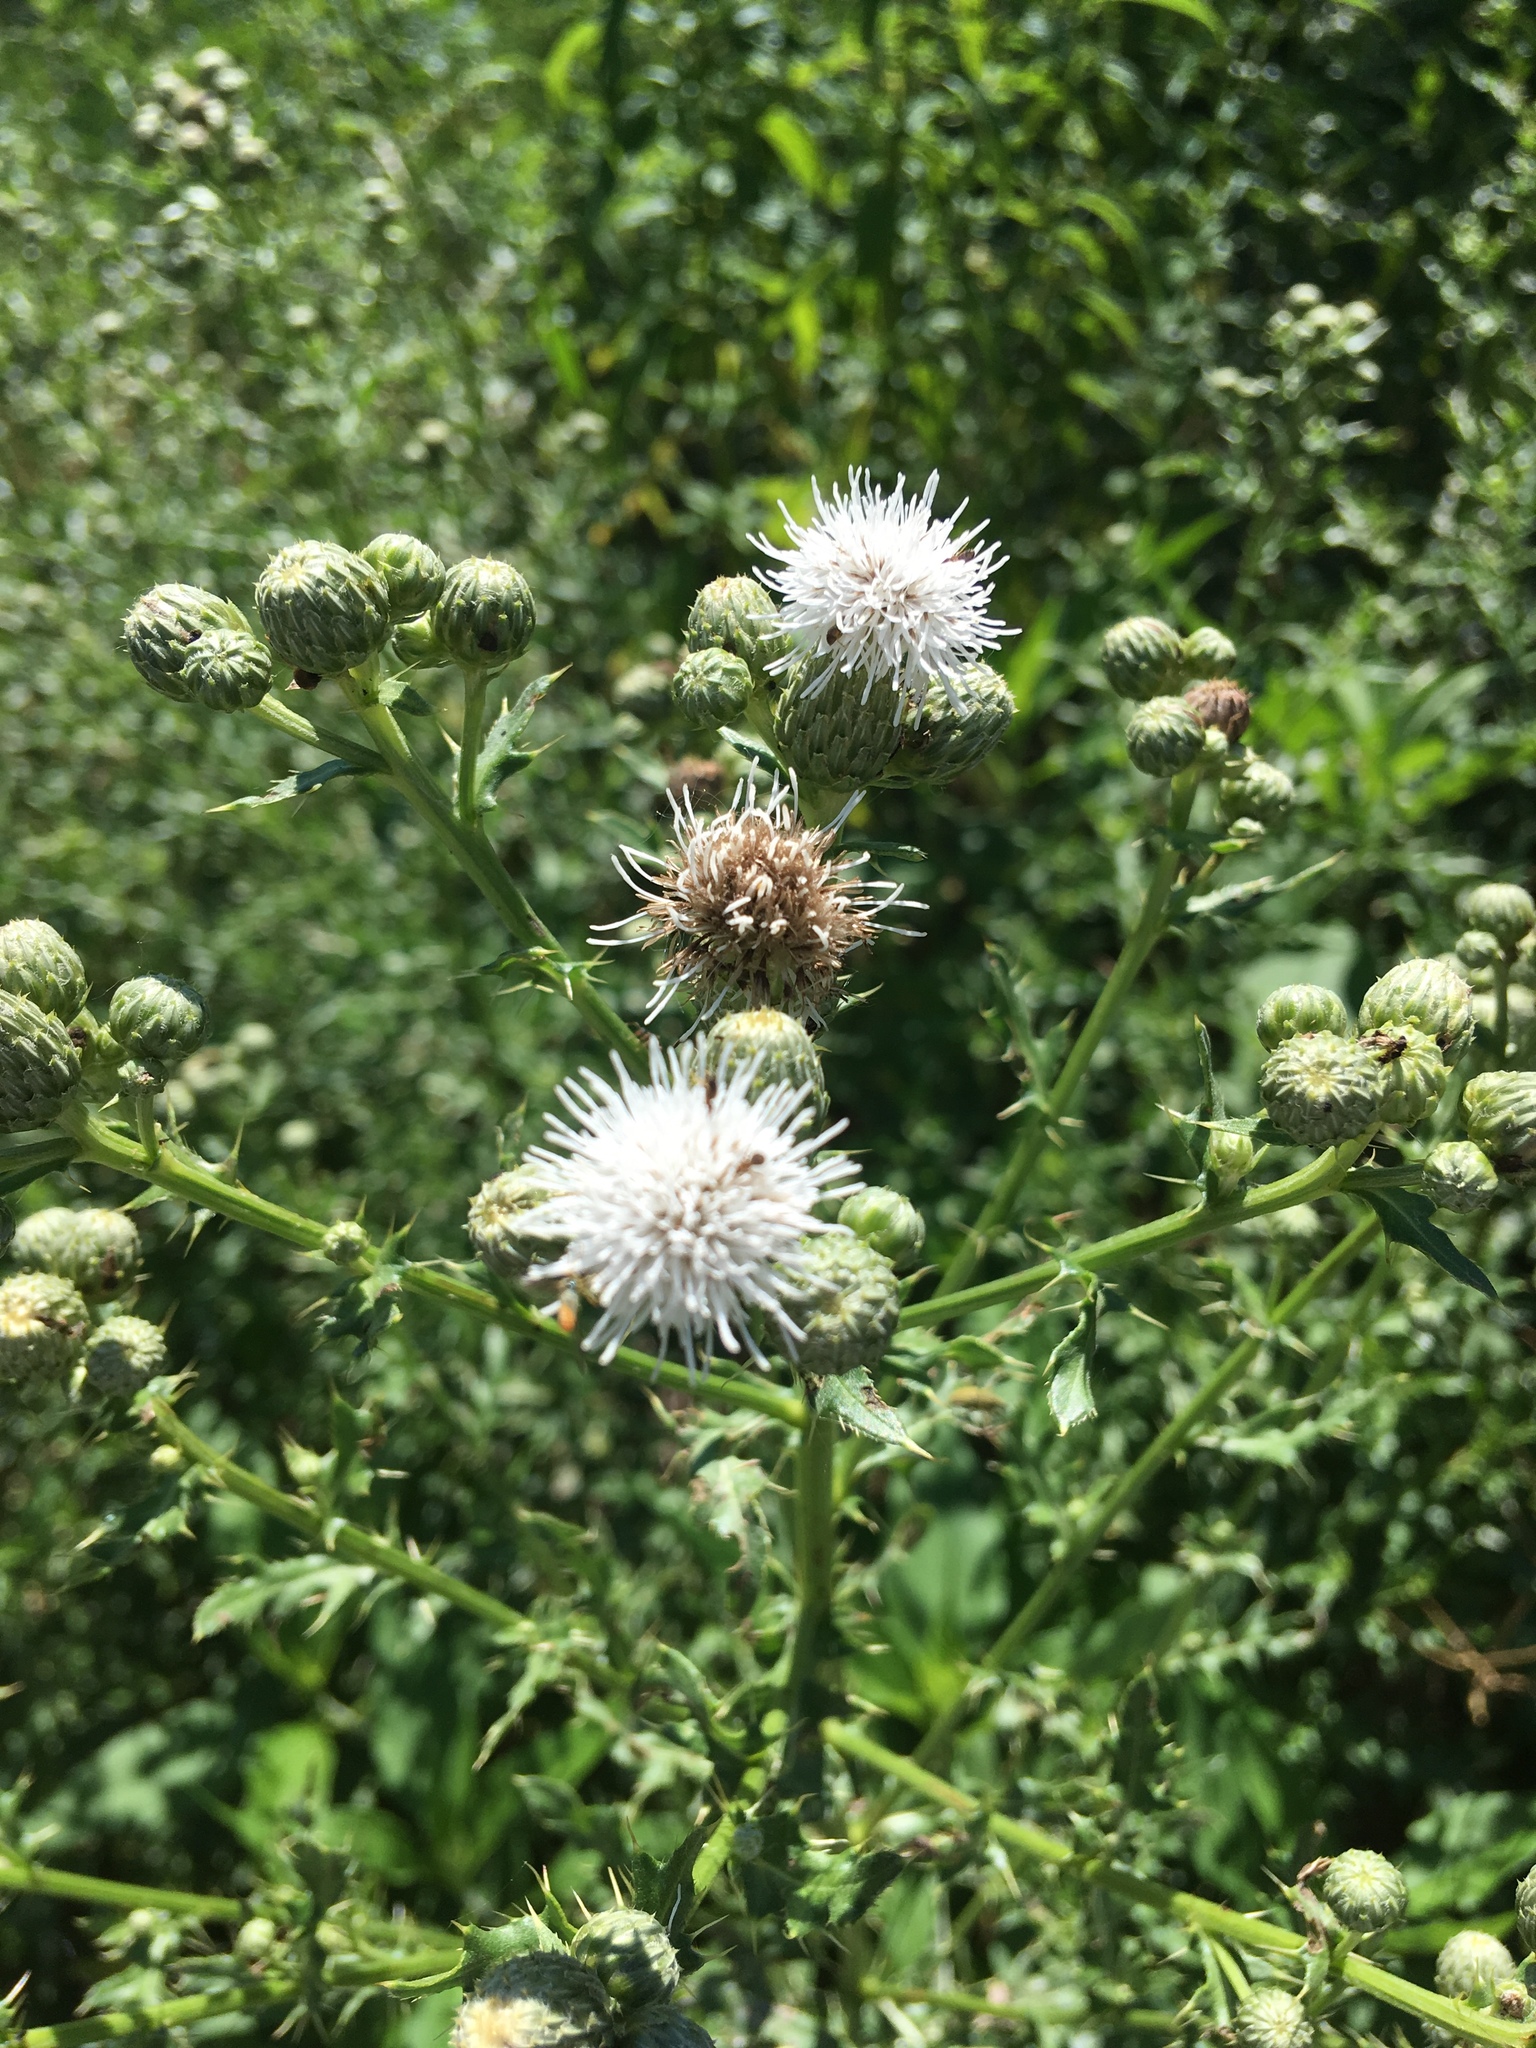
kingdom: Plantae
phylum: Tracheophyta
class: Magnoliopsida
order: Asterales
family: Asteraceae
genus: Cirsium
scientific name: Cirsium arvense
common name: Creeping thistle
